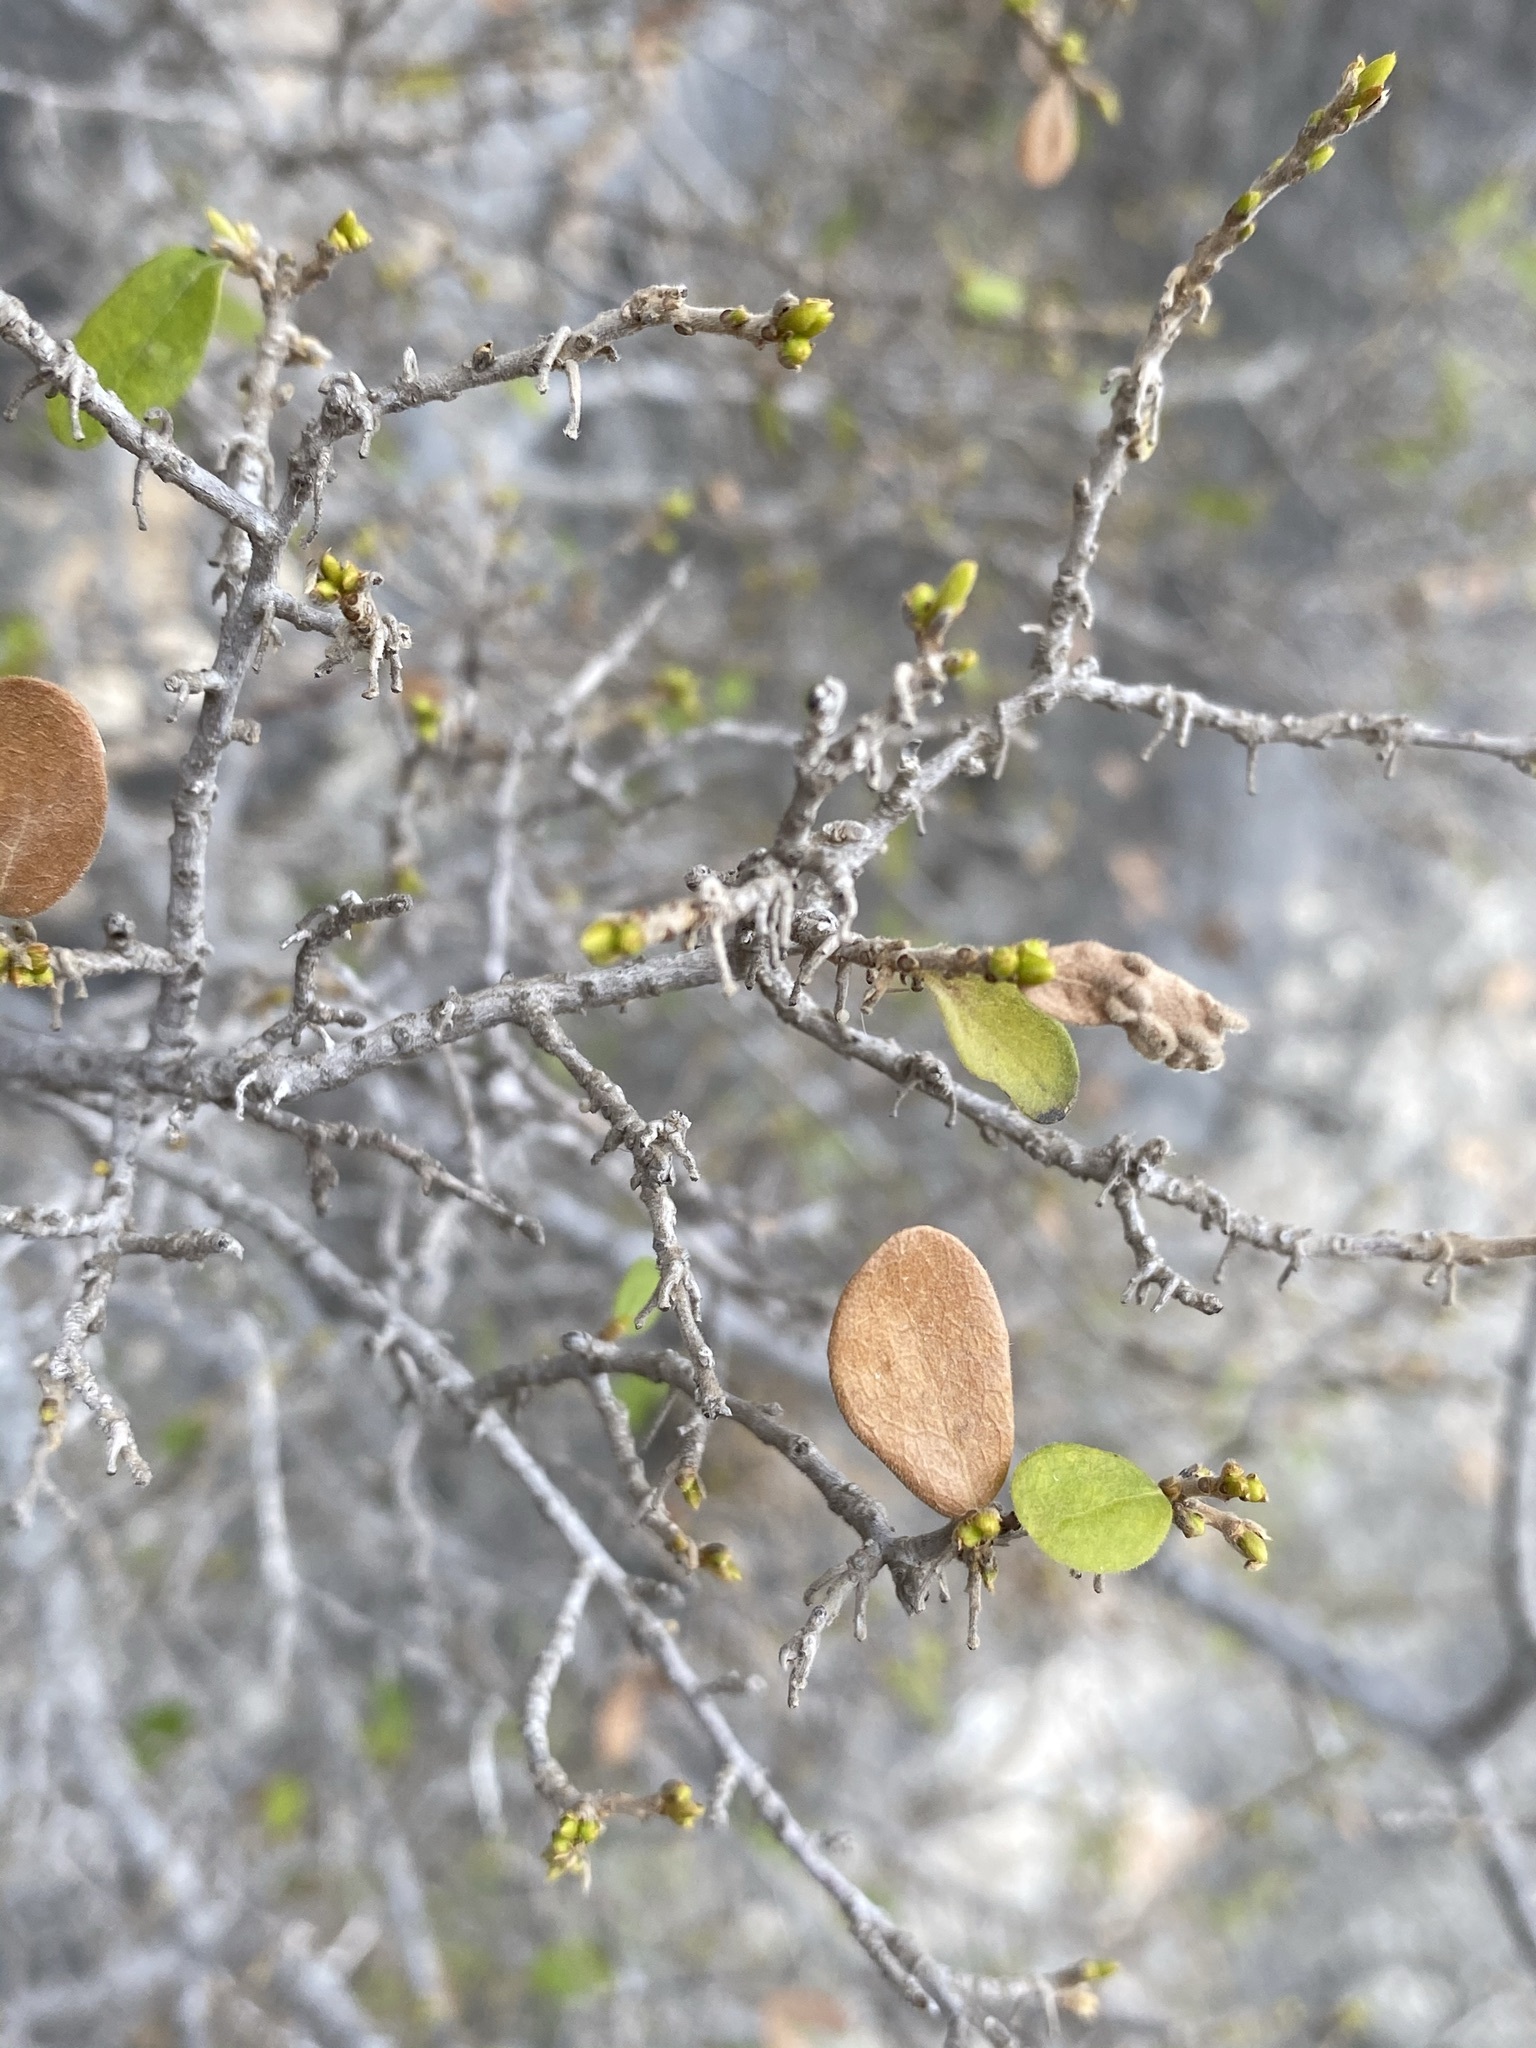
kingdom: Plantae
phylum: Tracheophyta
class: Magnoliopsida
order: Ericales
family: Ebenaceae
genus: Diospyros
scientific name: Diospyros texana
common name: Texas persimmon
